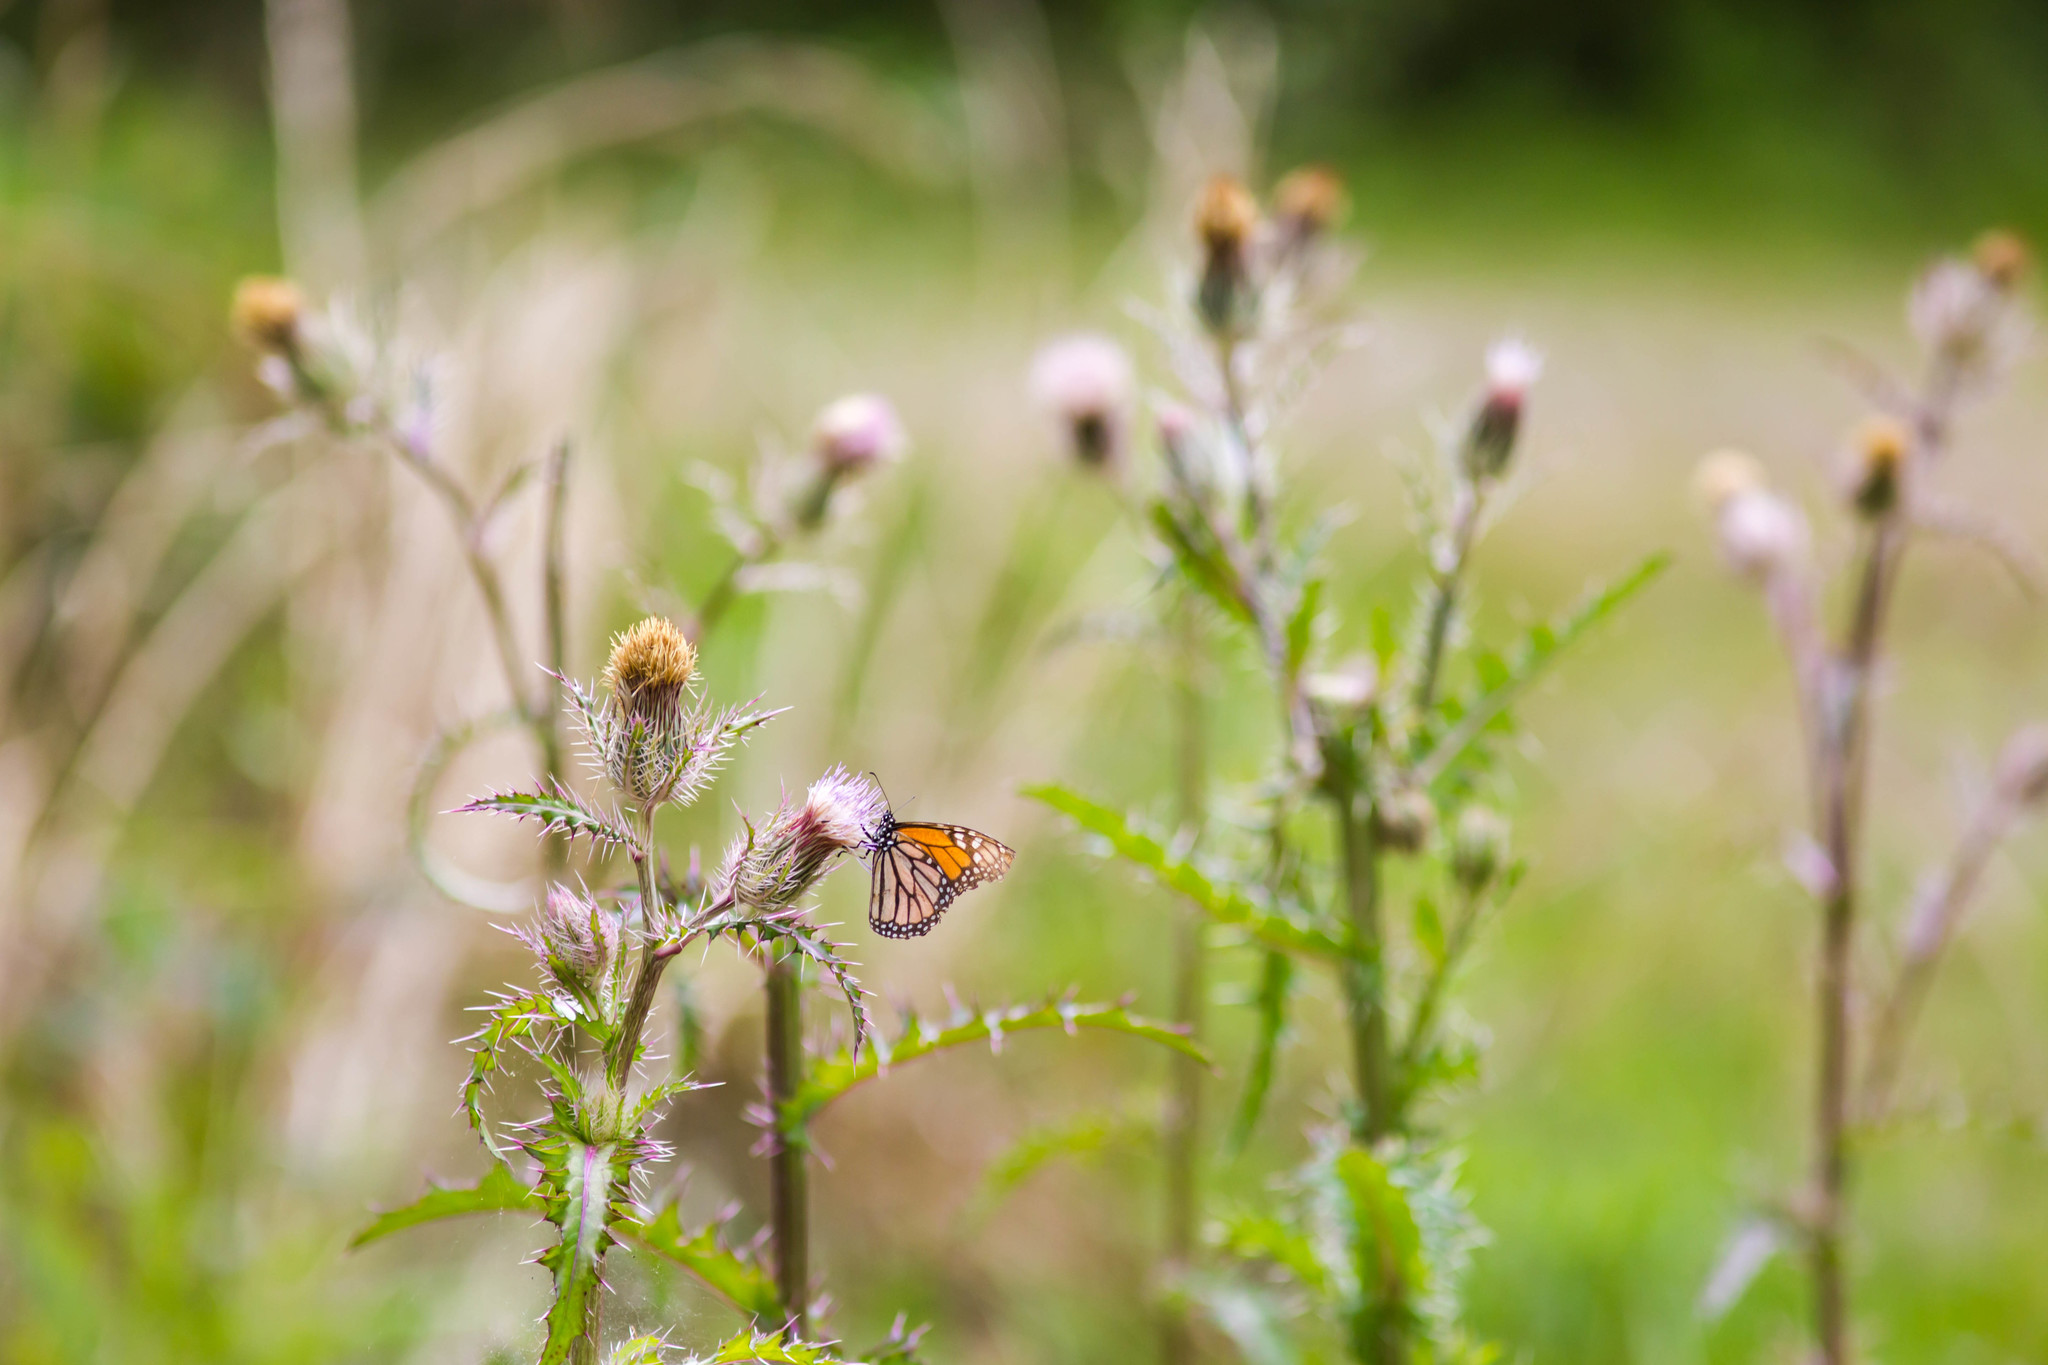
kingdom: Animalia
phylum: Arthropoda
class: Insecta
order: Lepidoptera
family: Nymphalidae
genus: Danaus
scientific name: Danaus plexippus
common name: Monarch
